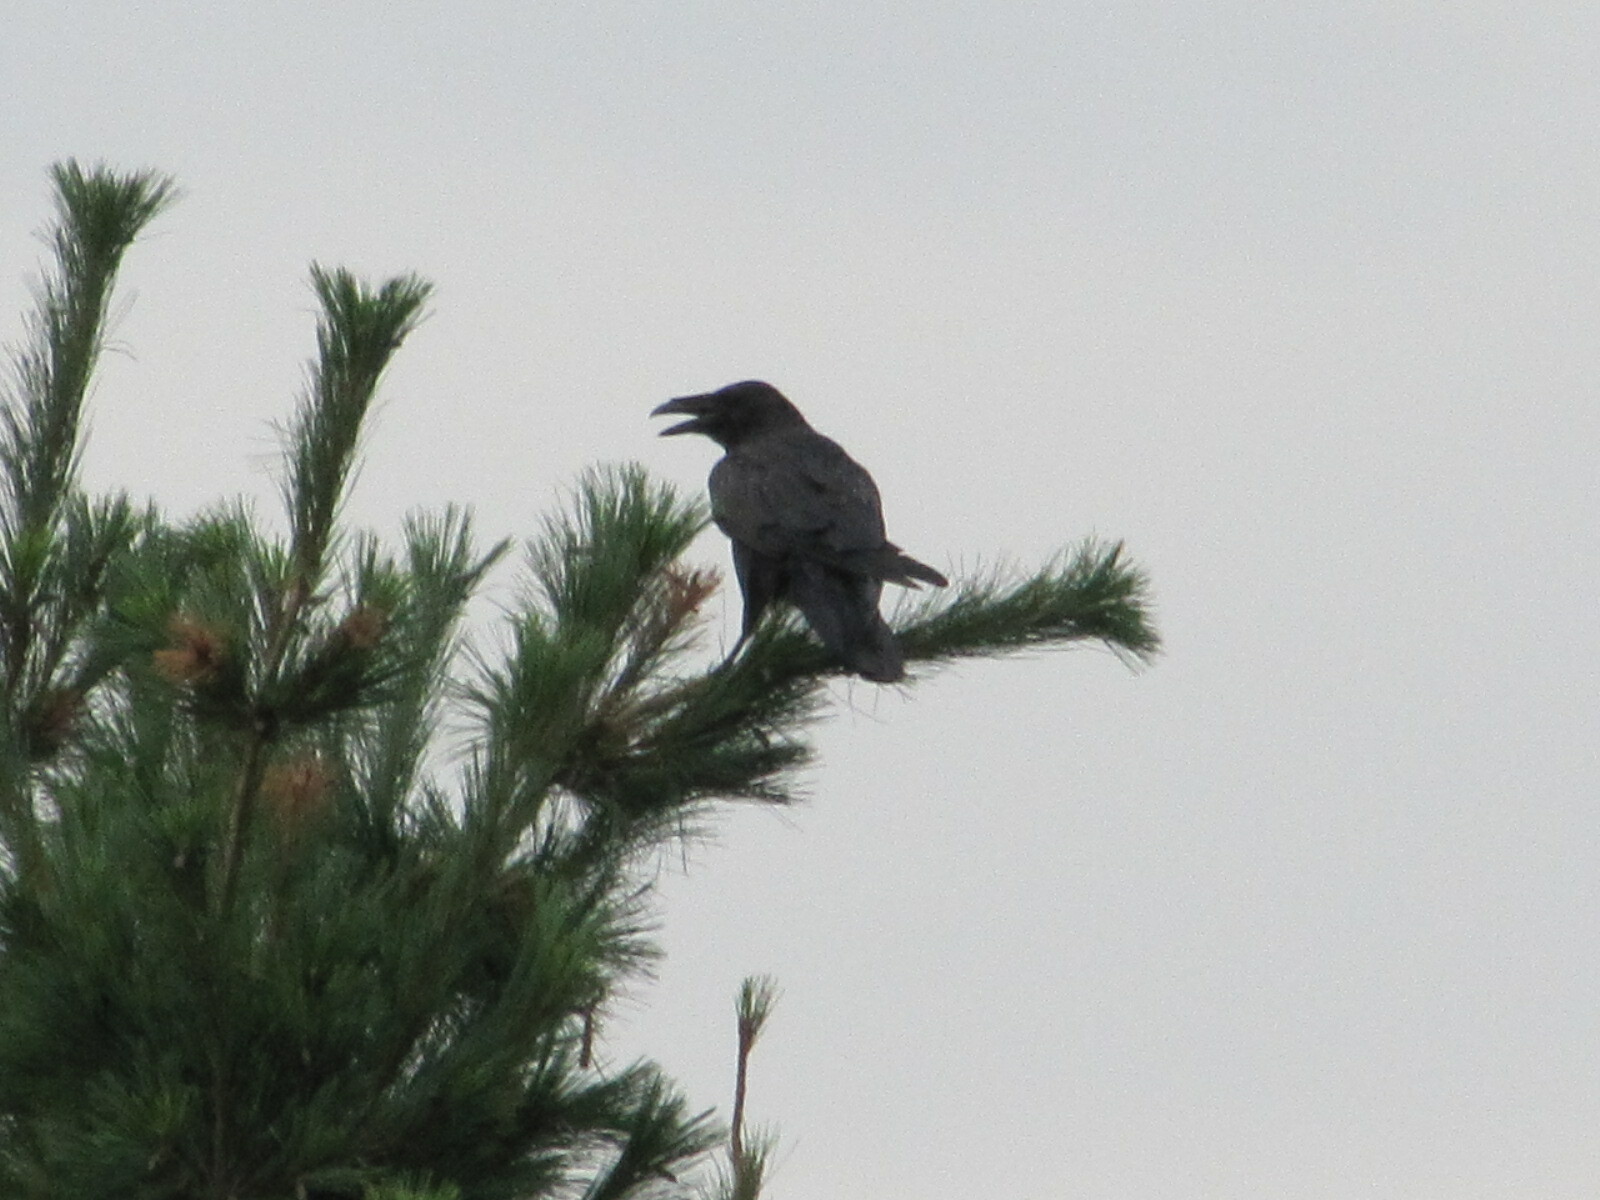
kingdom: Animalia
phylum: Chordata
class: Aves
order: Passeriformes
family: Corvidae
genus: Corvus
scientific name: Corvus corax
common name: Common raven
